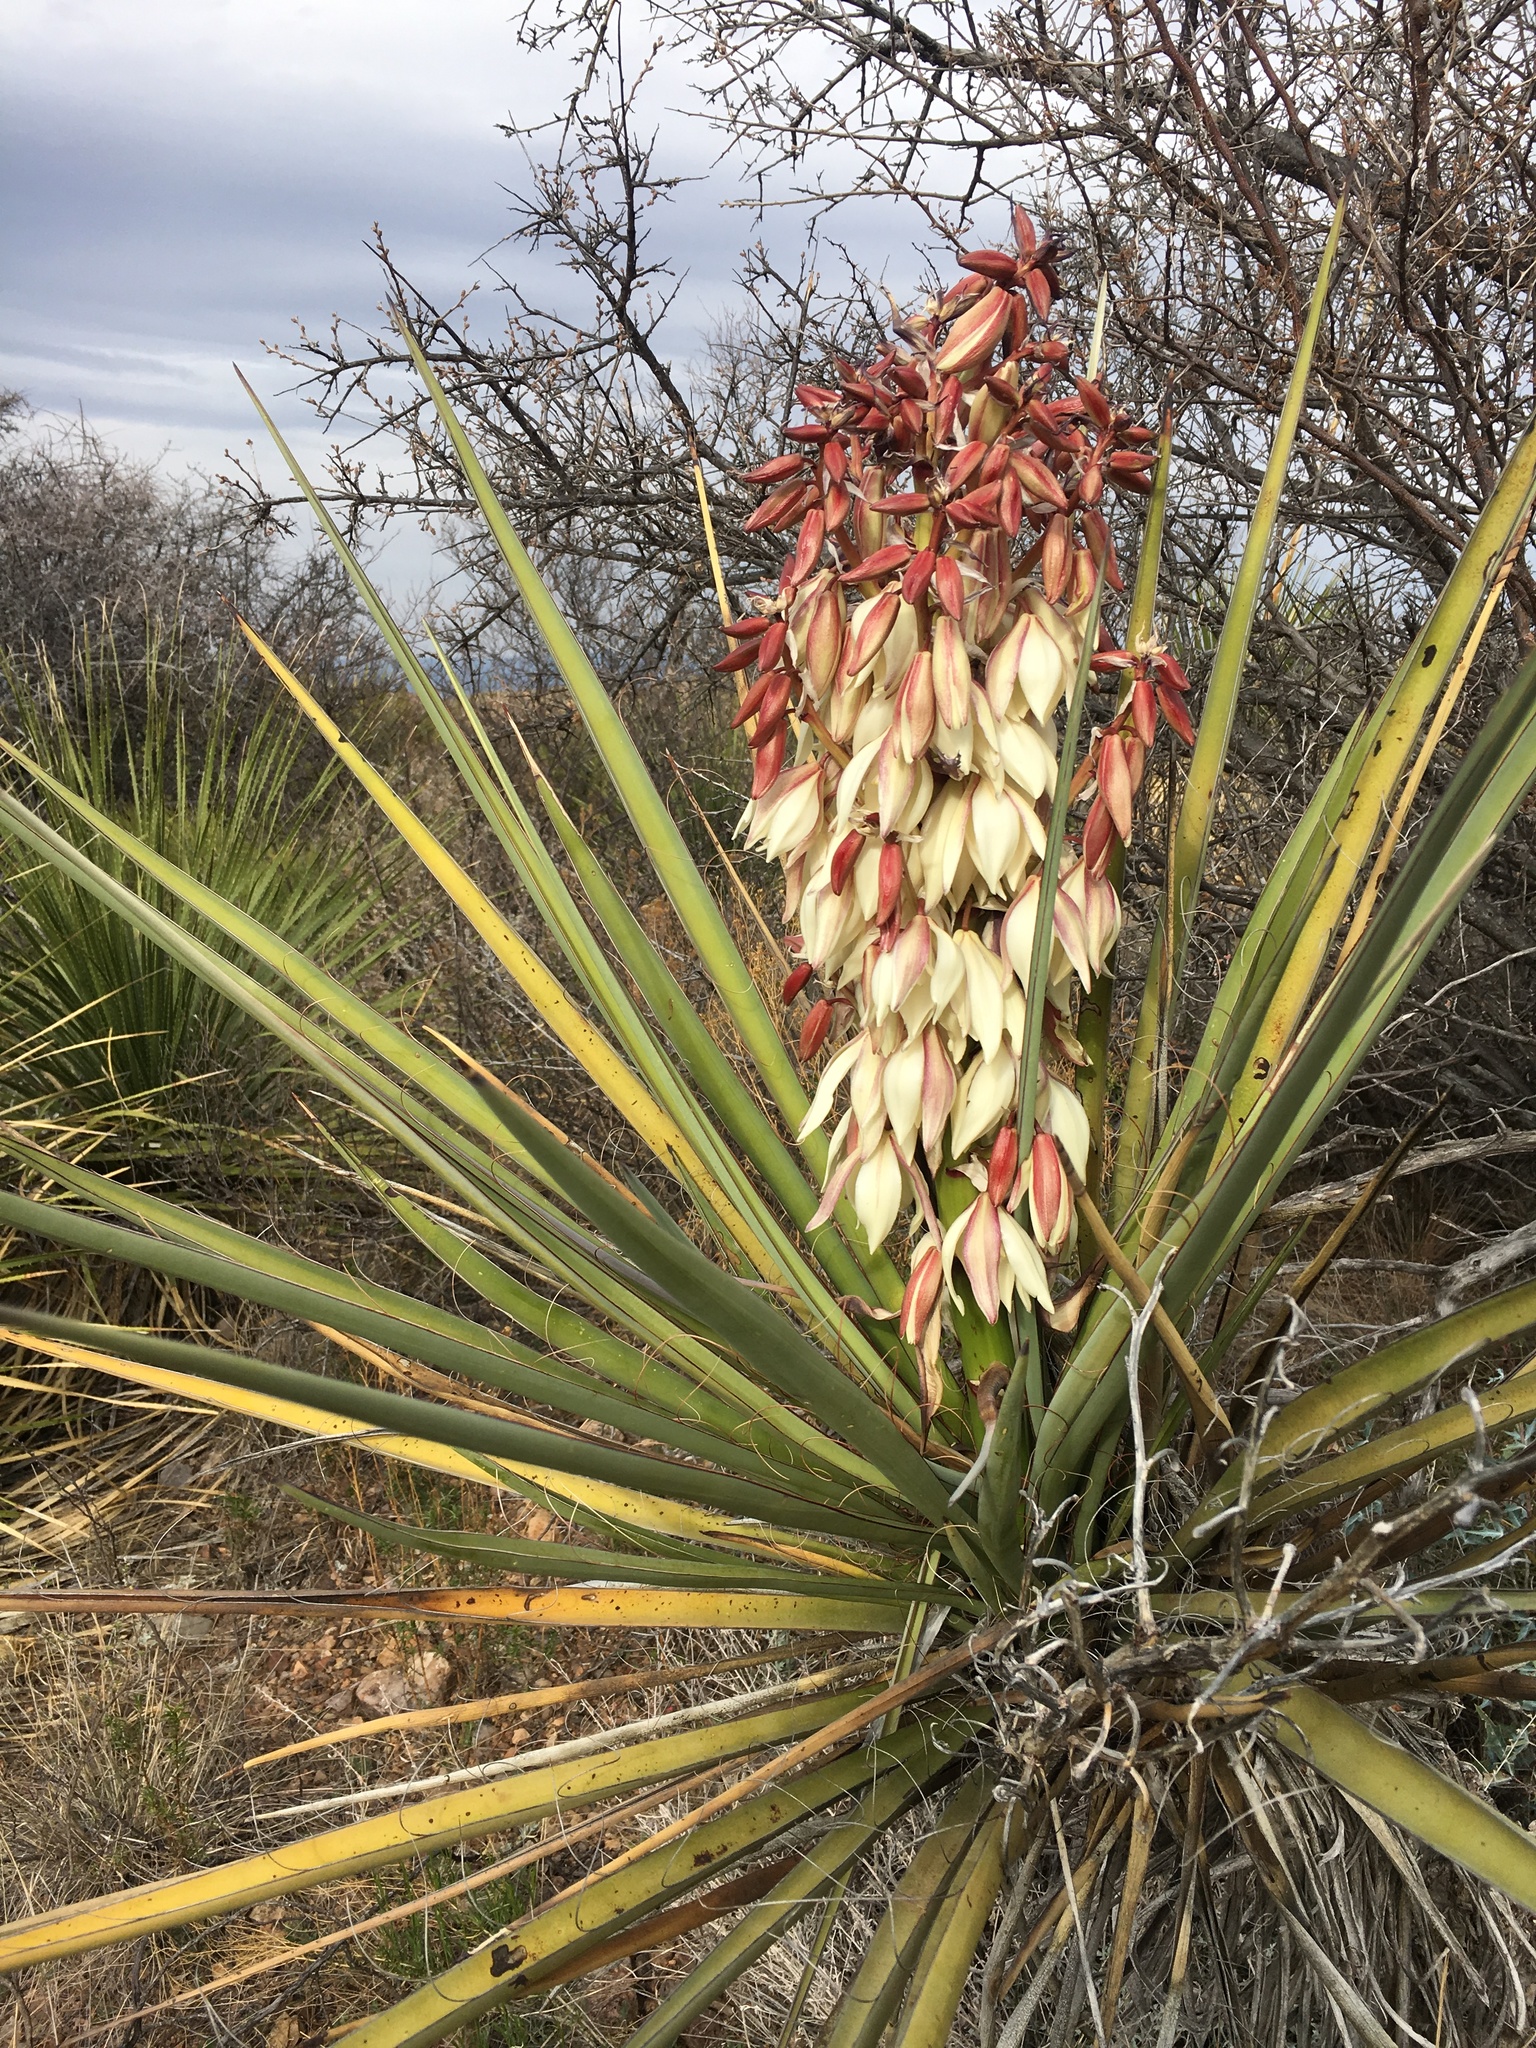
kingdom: Plantae
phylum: Tracheophyta
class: Liliopsida
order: Asparagales
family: Asparagaceae
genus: Yucca
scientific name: Yucca treculiana
